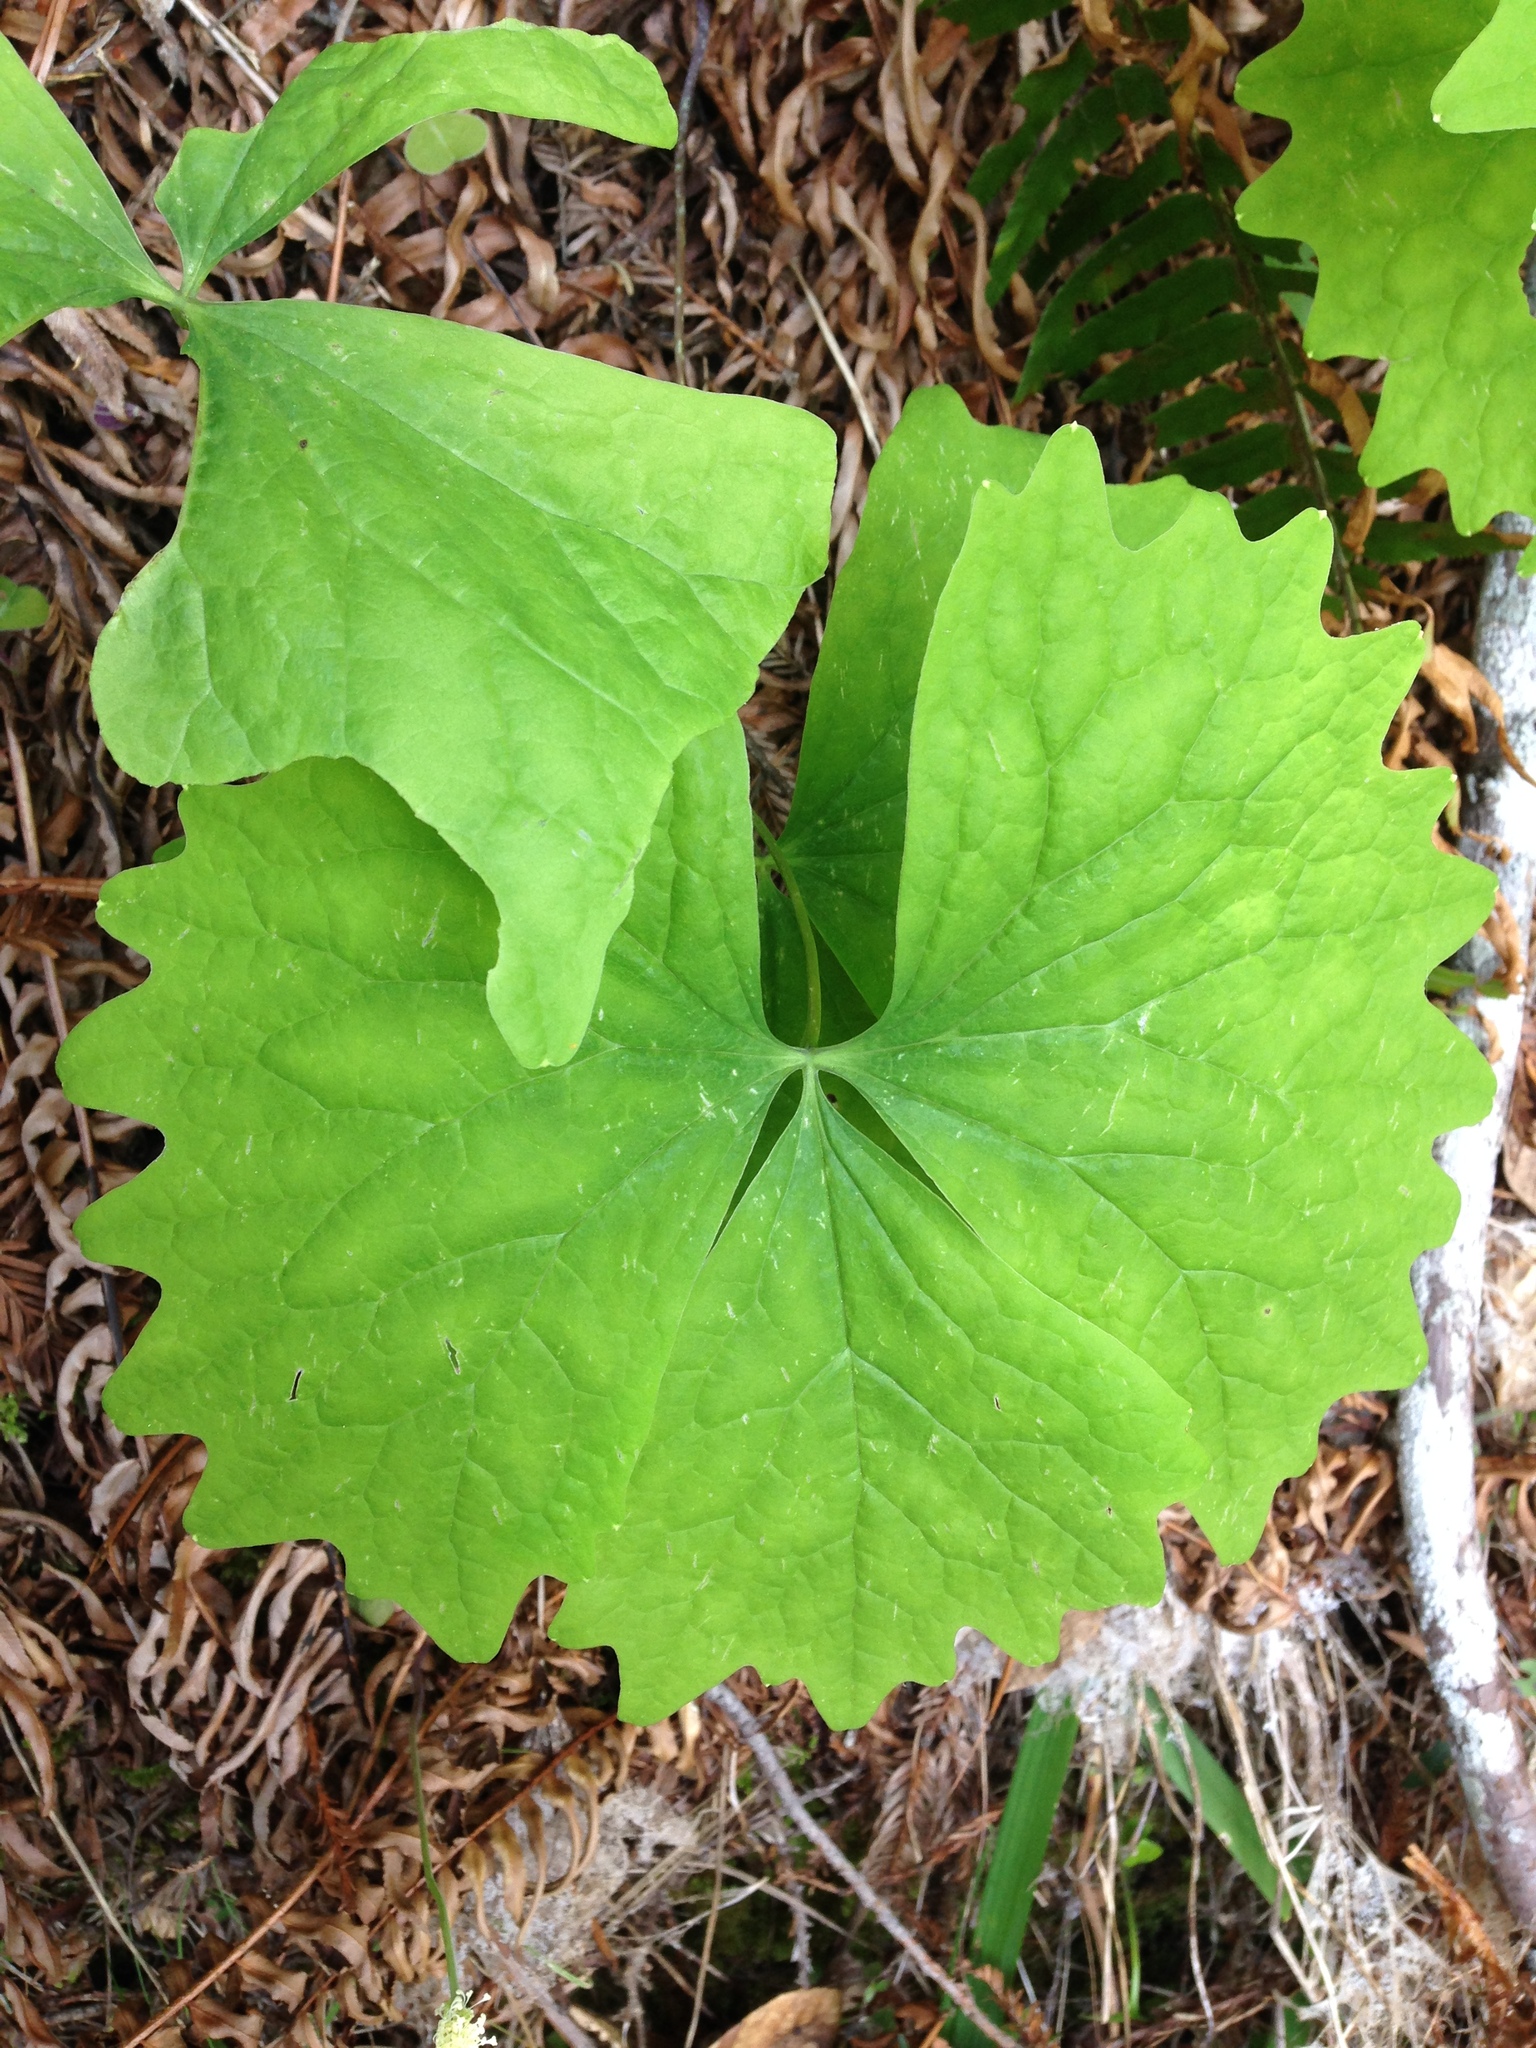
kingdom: Plantae
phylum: Tracheophyta
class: Magnoliopsida
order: Ranunculales
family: Berberidaceae
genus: Achlys
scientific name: Achlys californica
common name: California deer-foot
